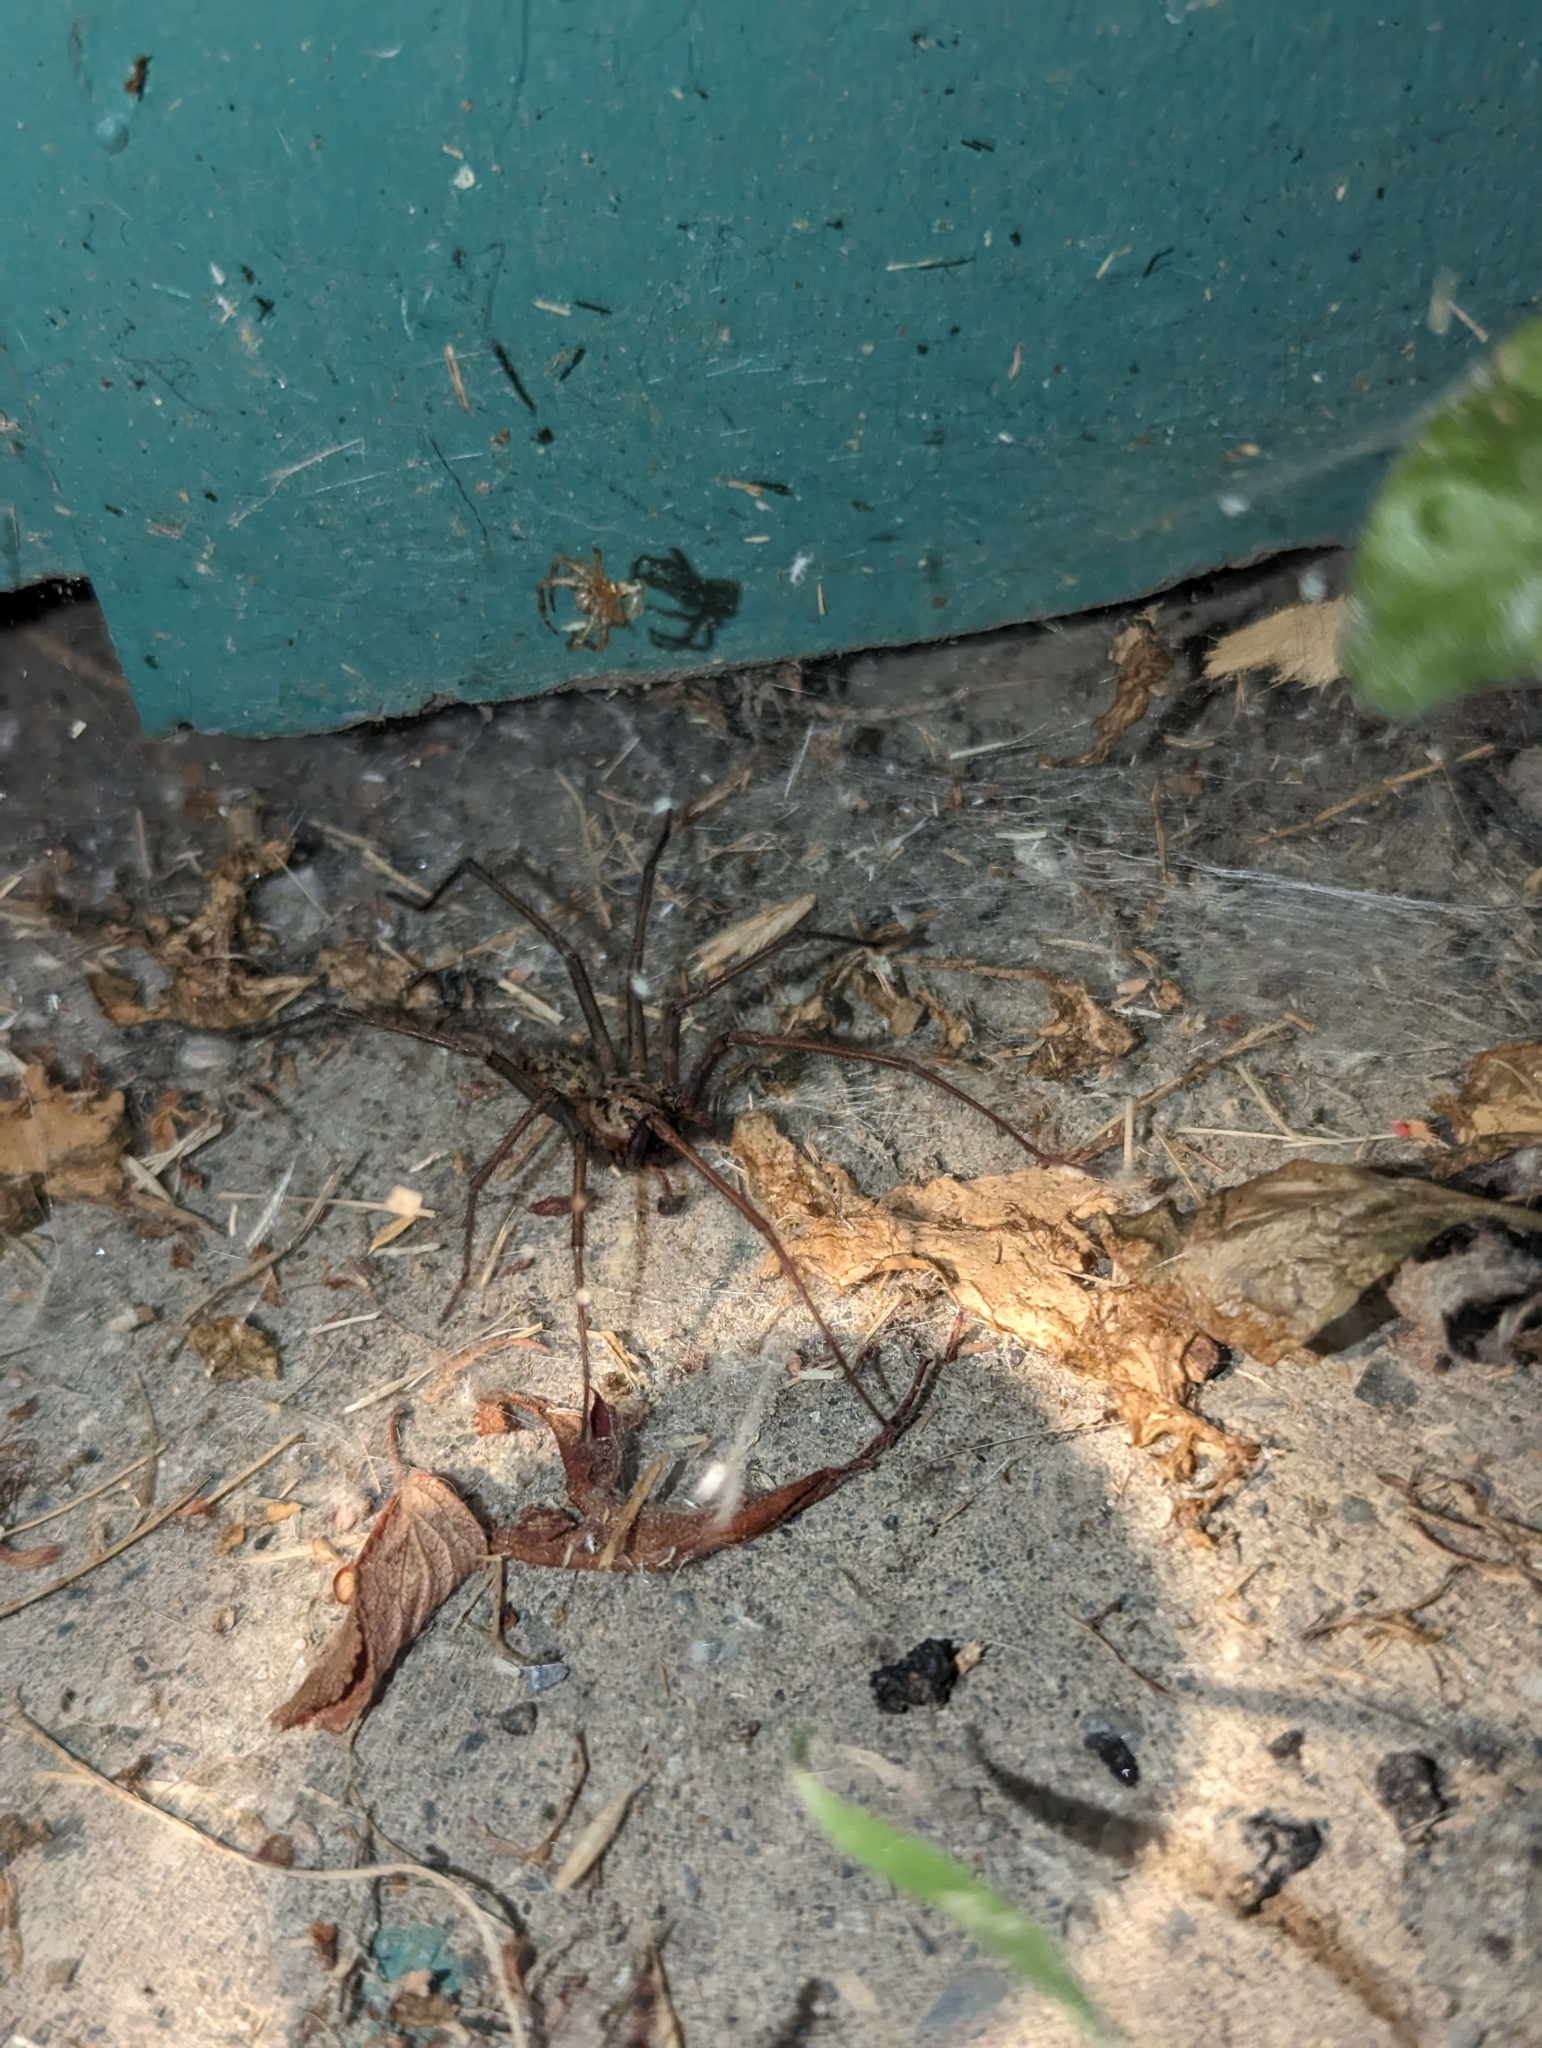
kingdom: Animalia
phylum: Arthropoda
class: Arachnida
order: Araneae
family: Agelenidae
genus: Eratigena
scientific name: Eratigena duellica
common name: Giant house spider
